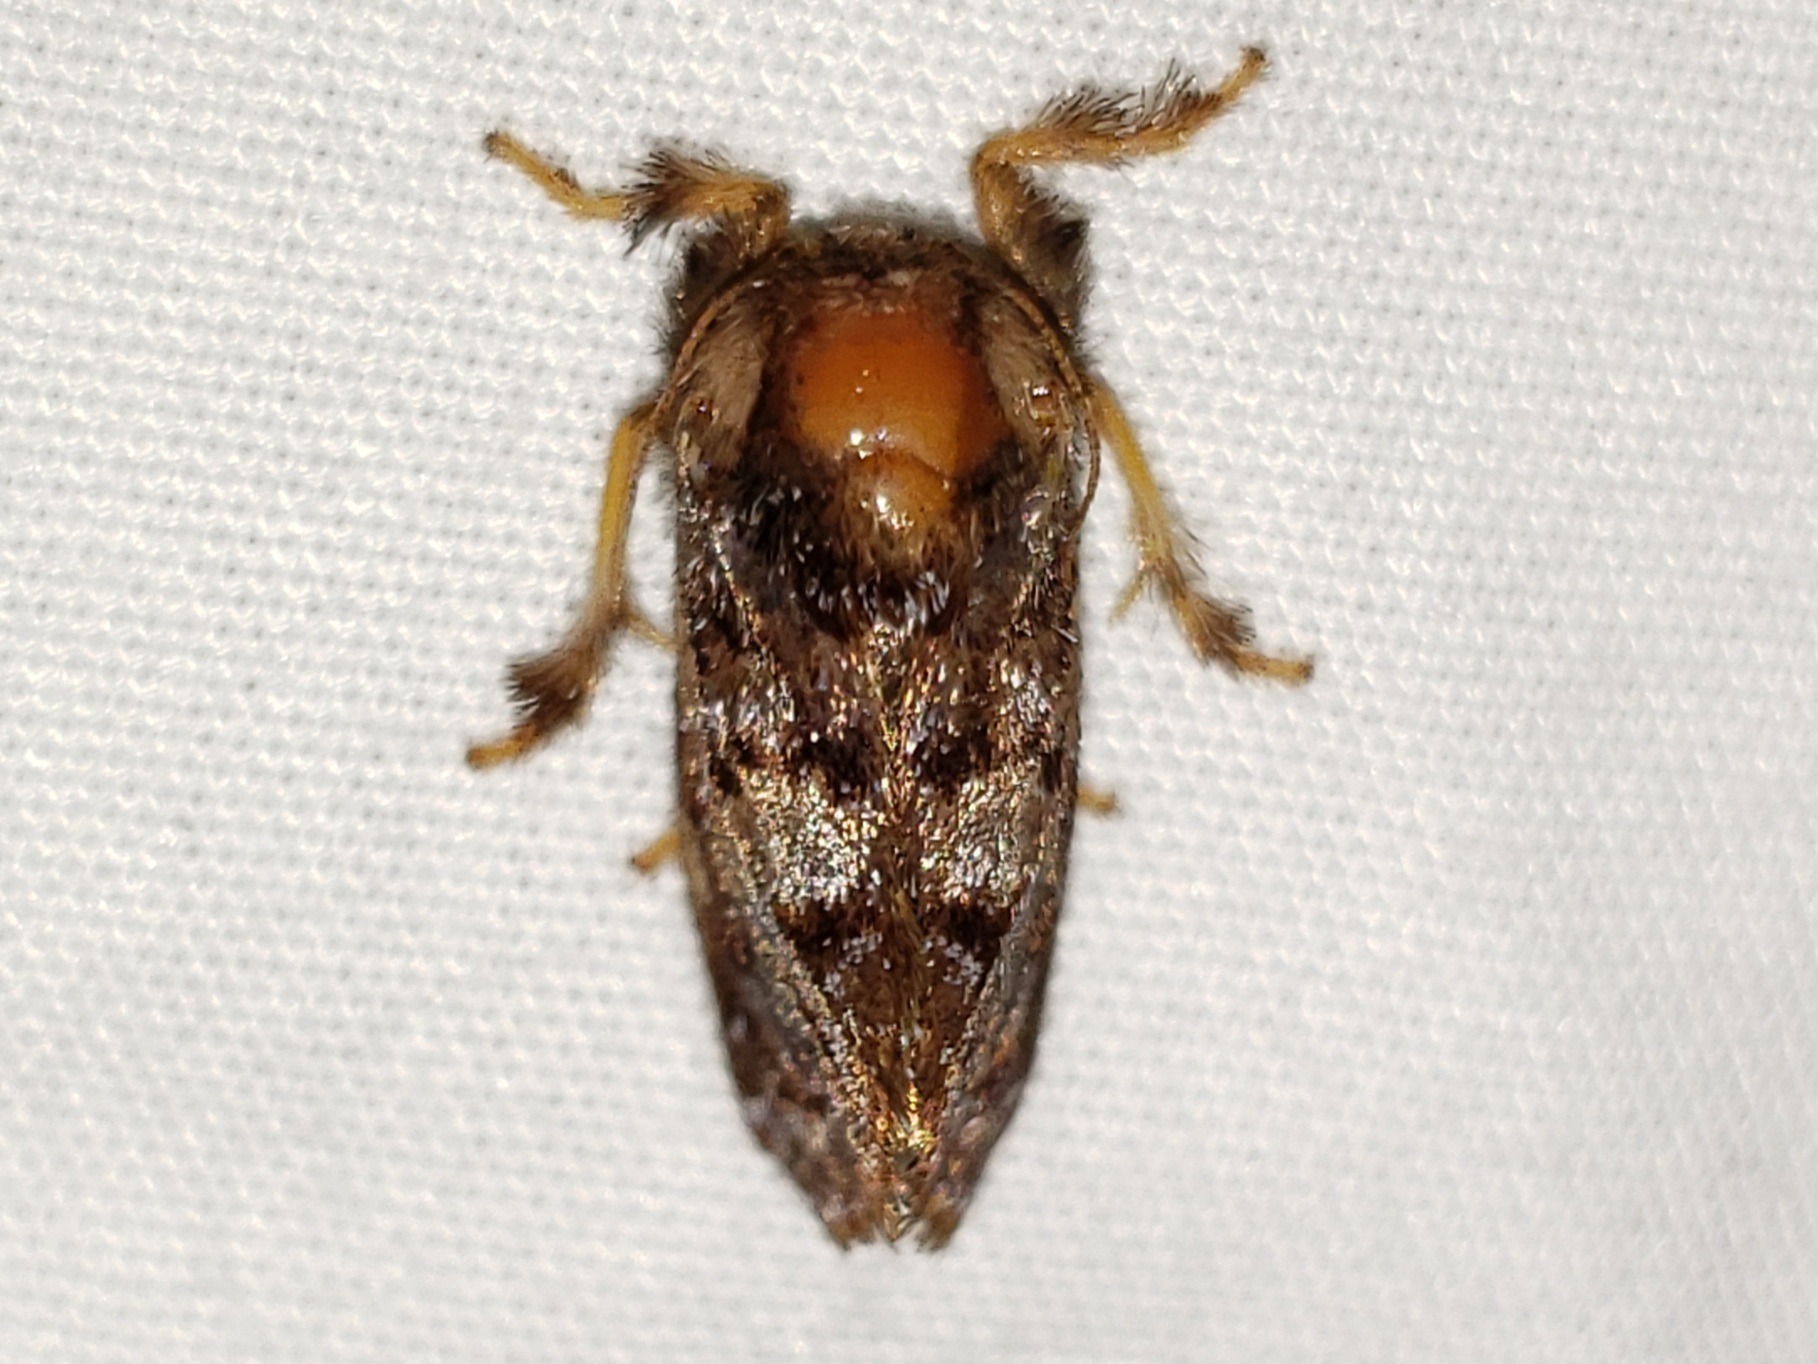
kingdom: Animalia
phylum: Arthropoda
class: Insecta
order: Lepidoptera
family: Limacodidae
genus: Isochaetes
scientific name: Isochaetes beutenmuelleri
